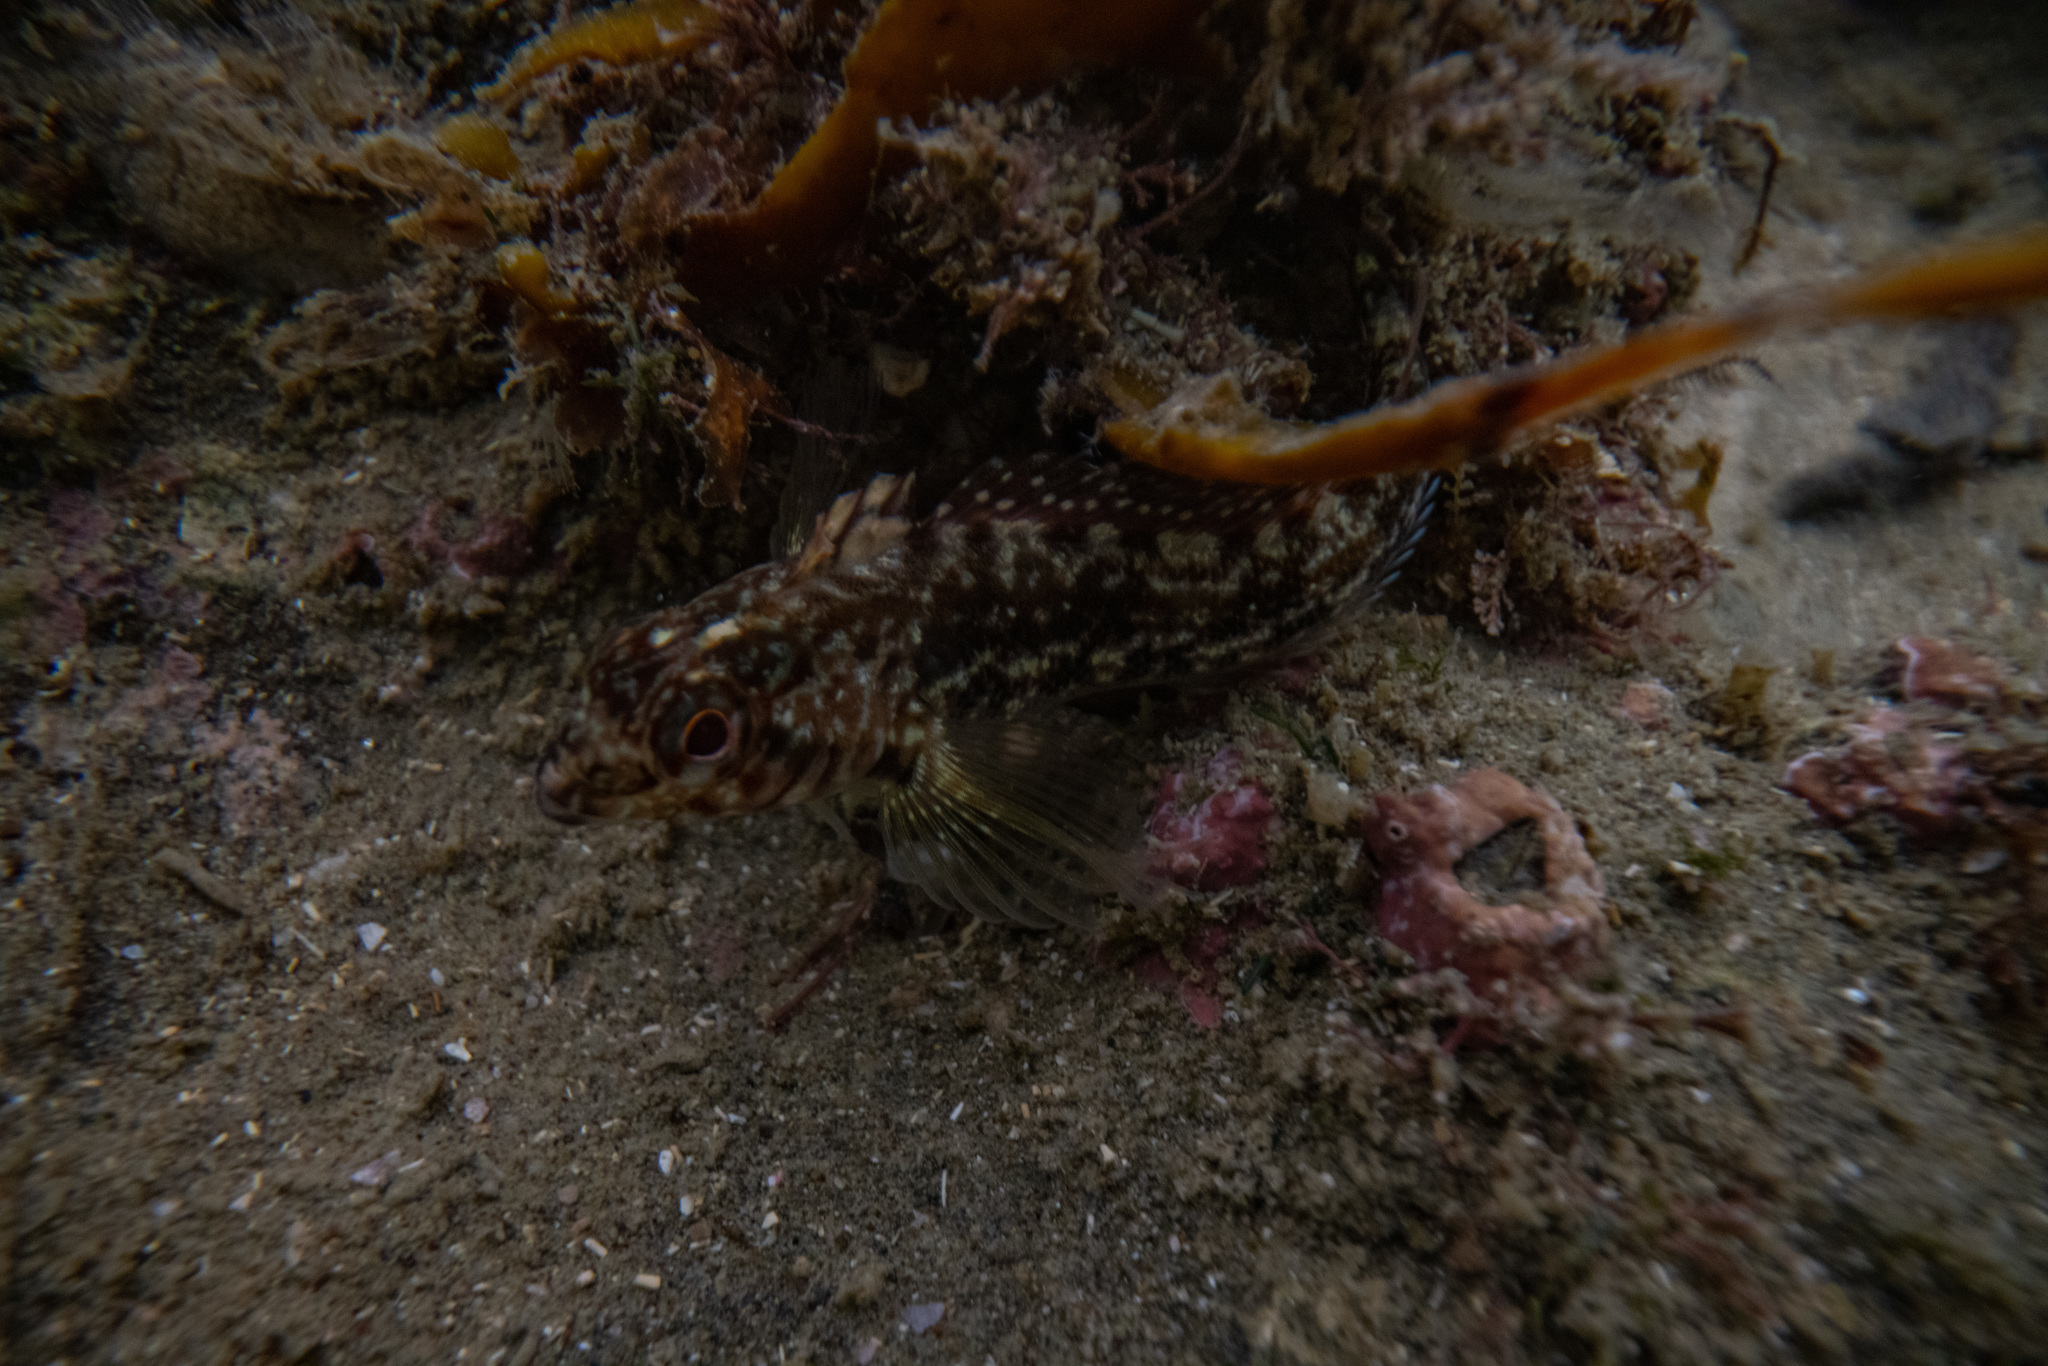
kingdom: Animalia
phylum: Chordata
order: Perciformes
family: Tripterygiidae
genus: Forsterygion
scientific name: Forsterygion lapillum
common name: Common triplefin
